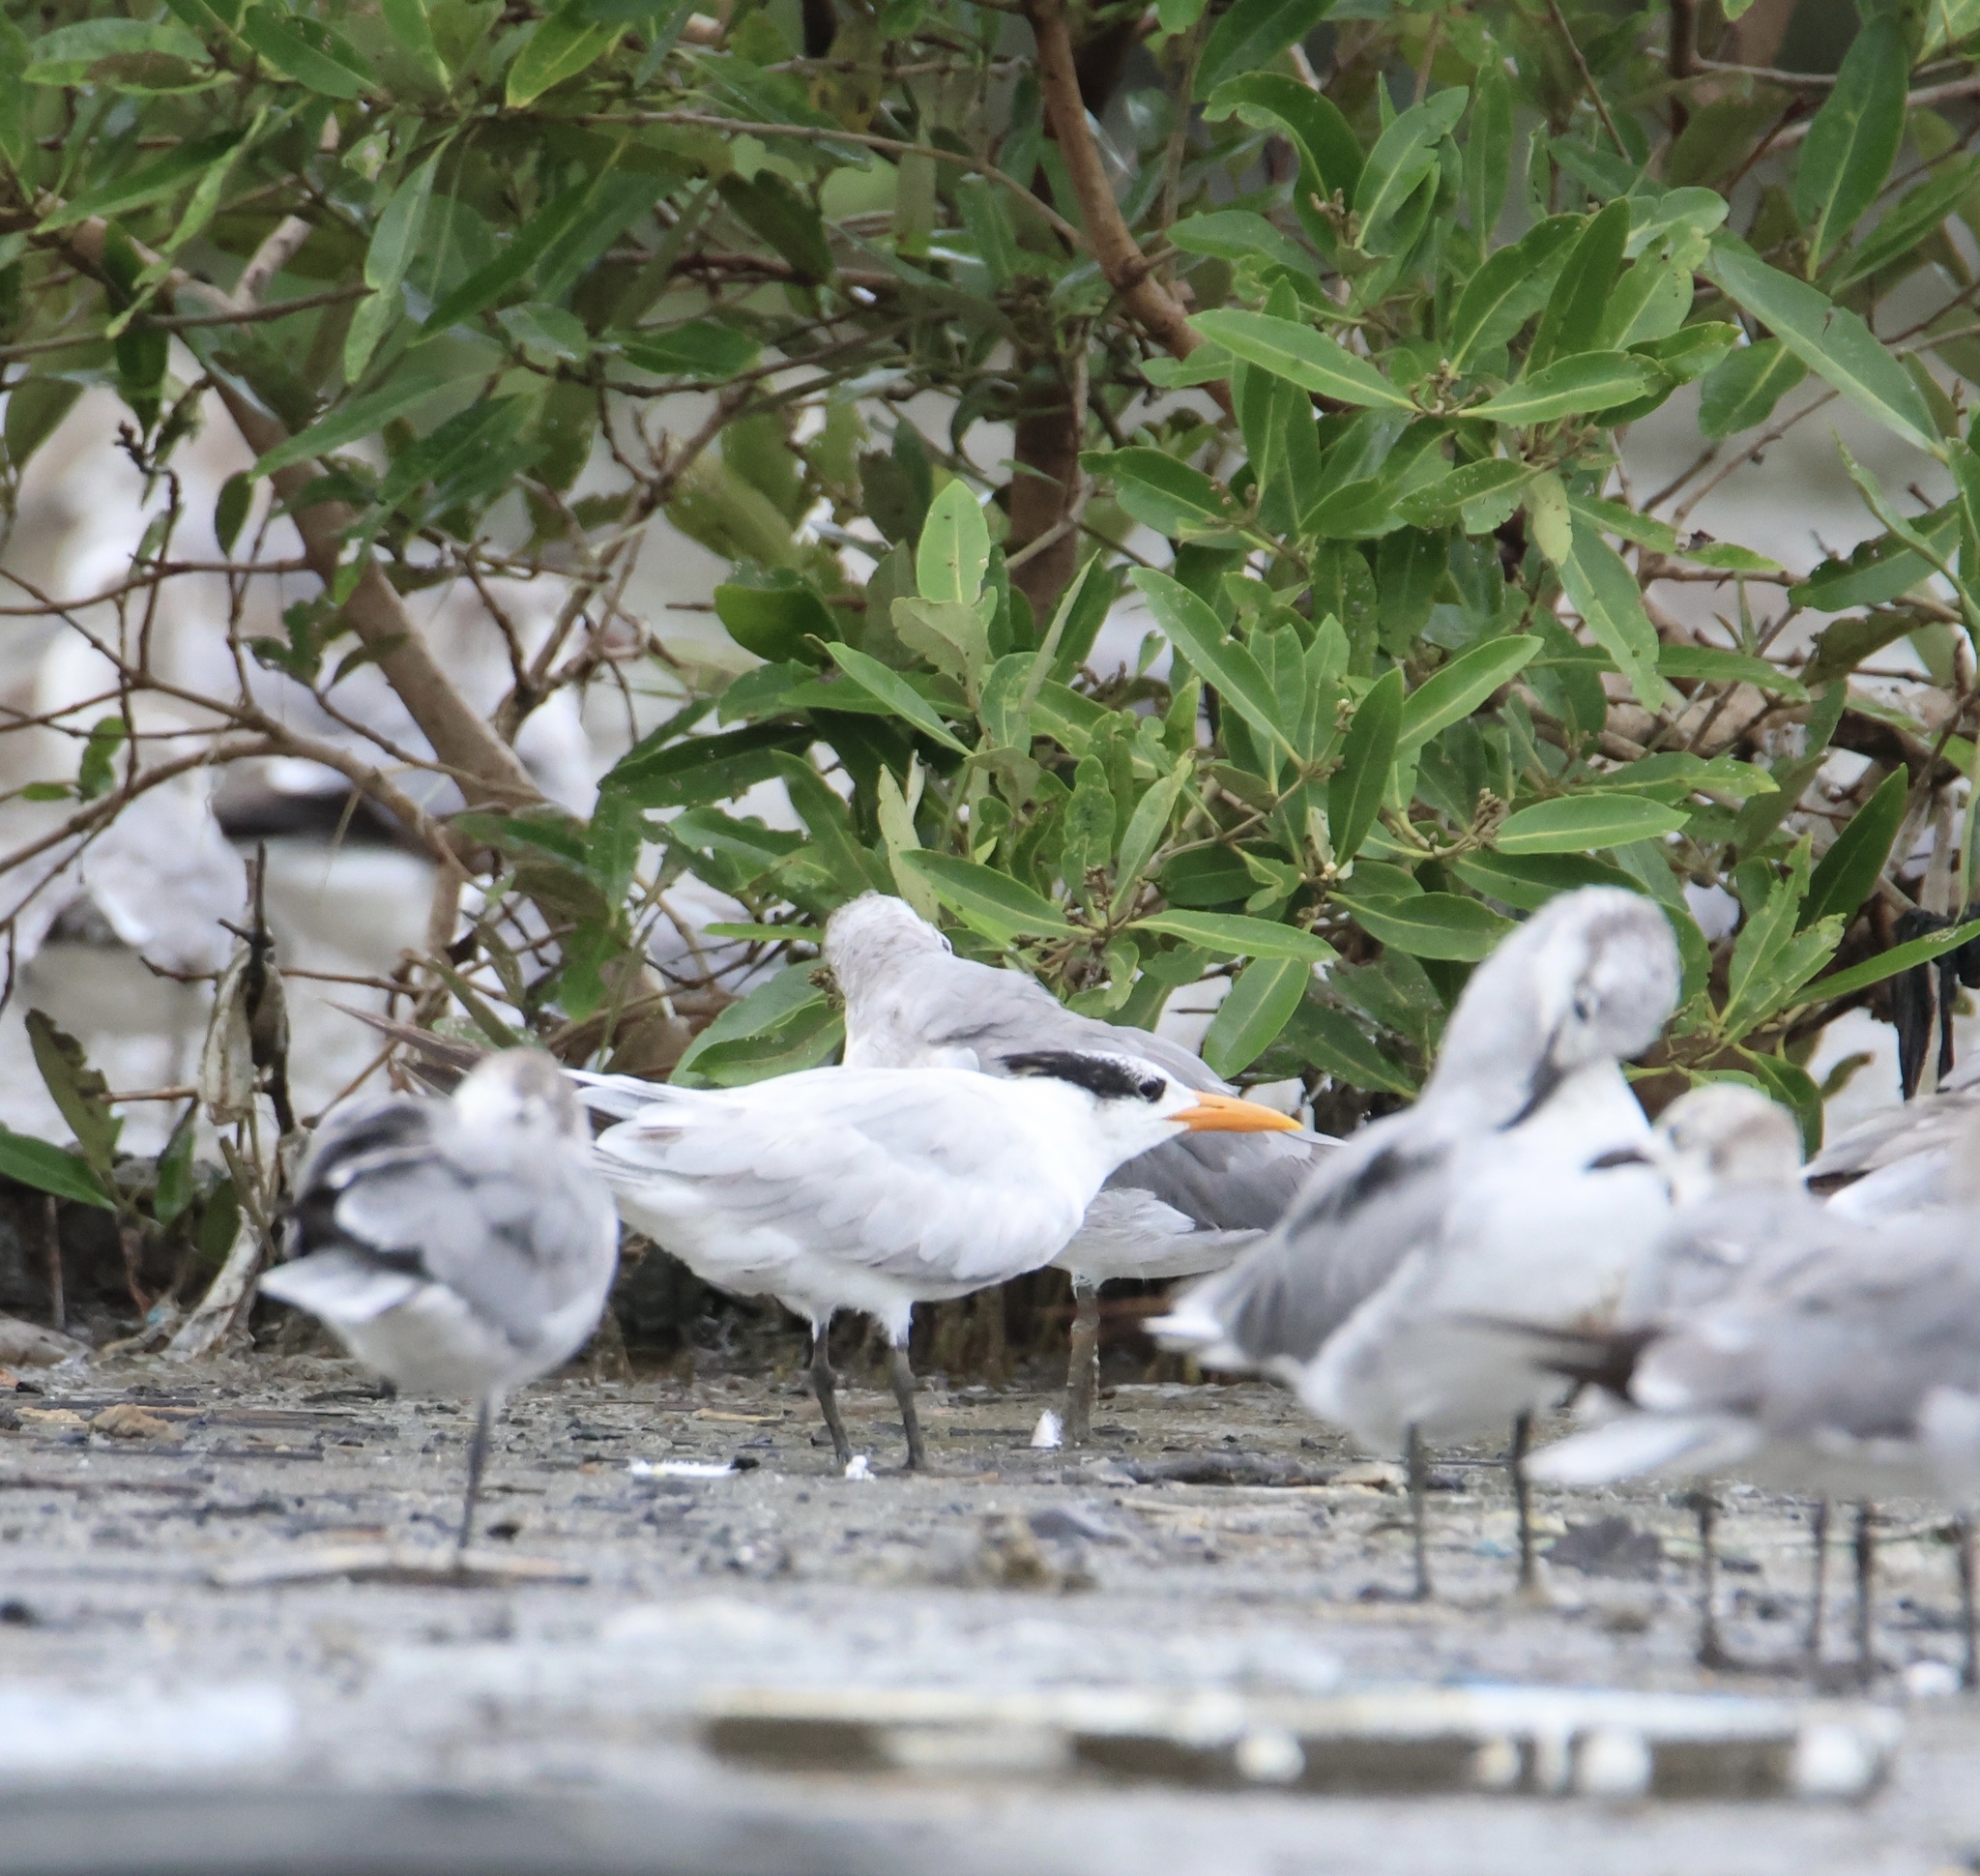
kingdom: Animalia
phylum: Chordata
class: Aves
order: Charadriiformes
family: Laridae
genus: Thalasseus
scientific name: Thalasseus maximus
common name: Royal tern
